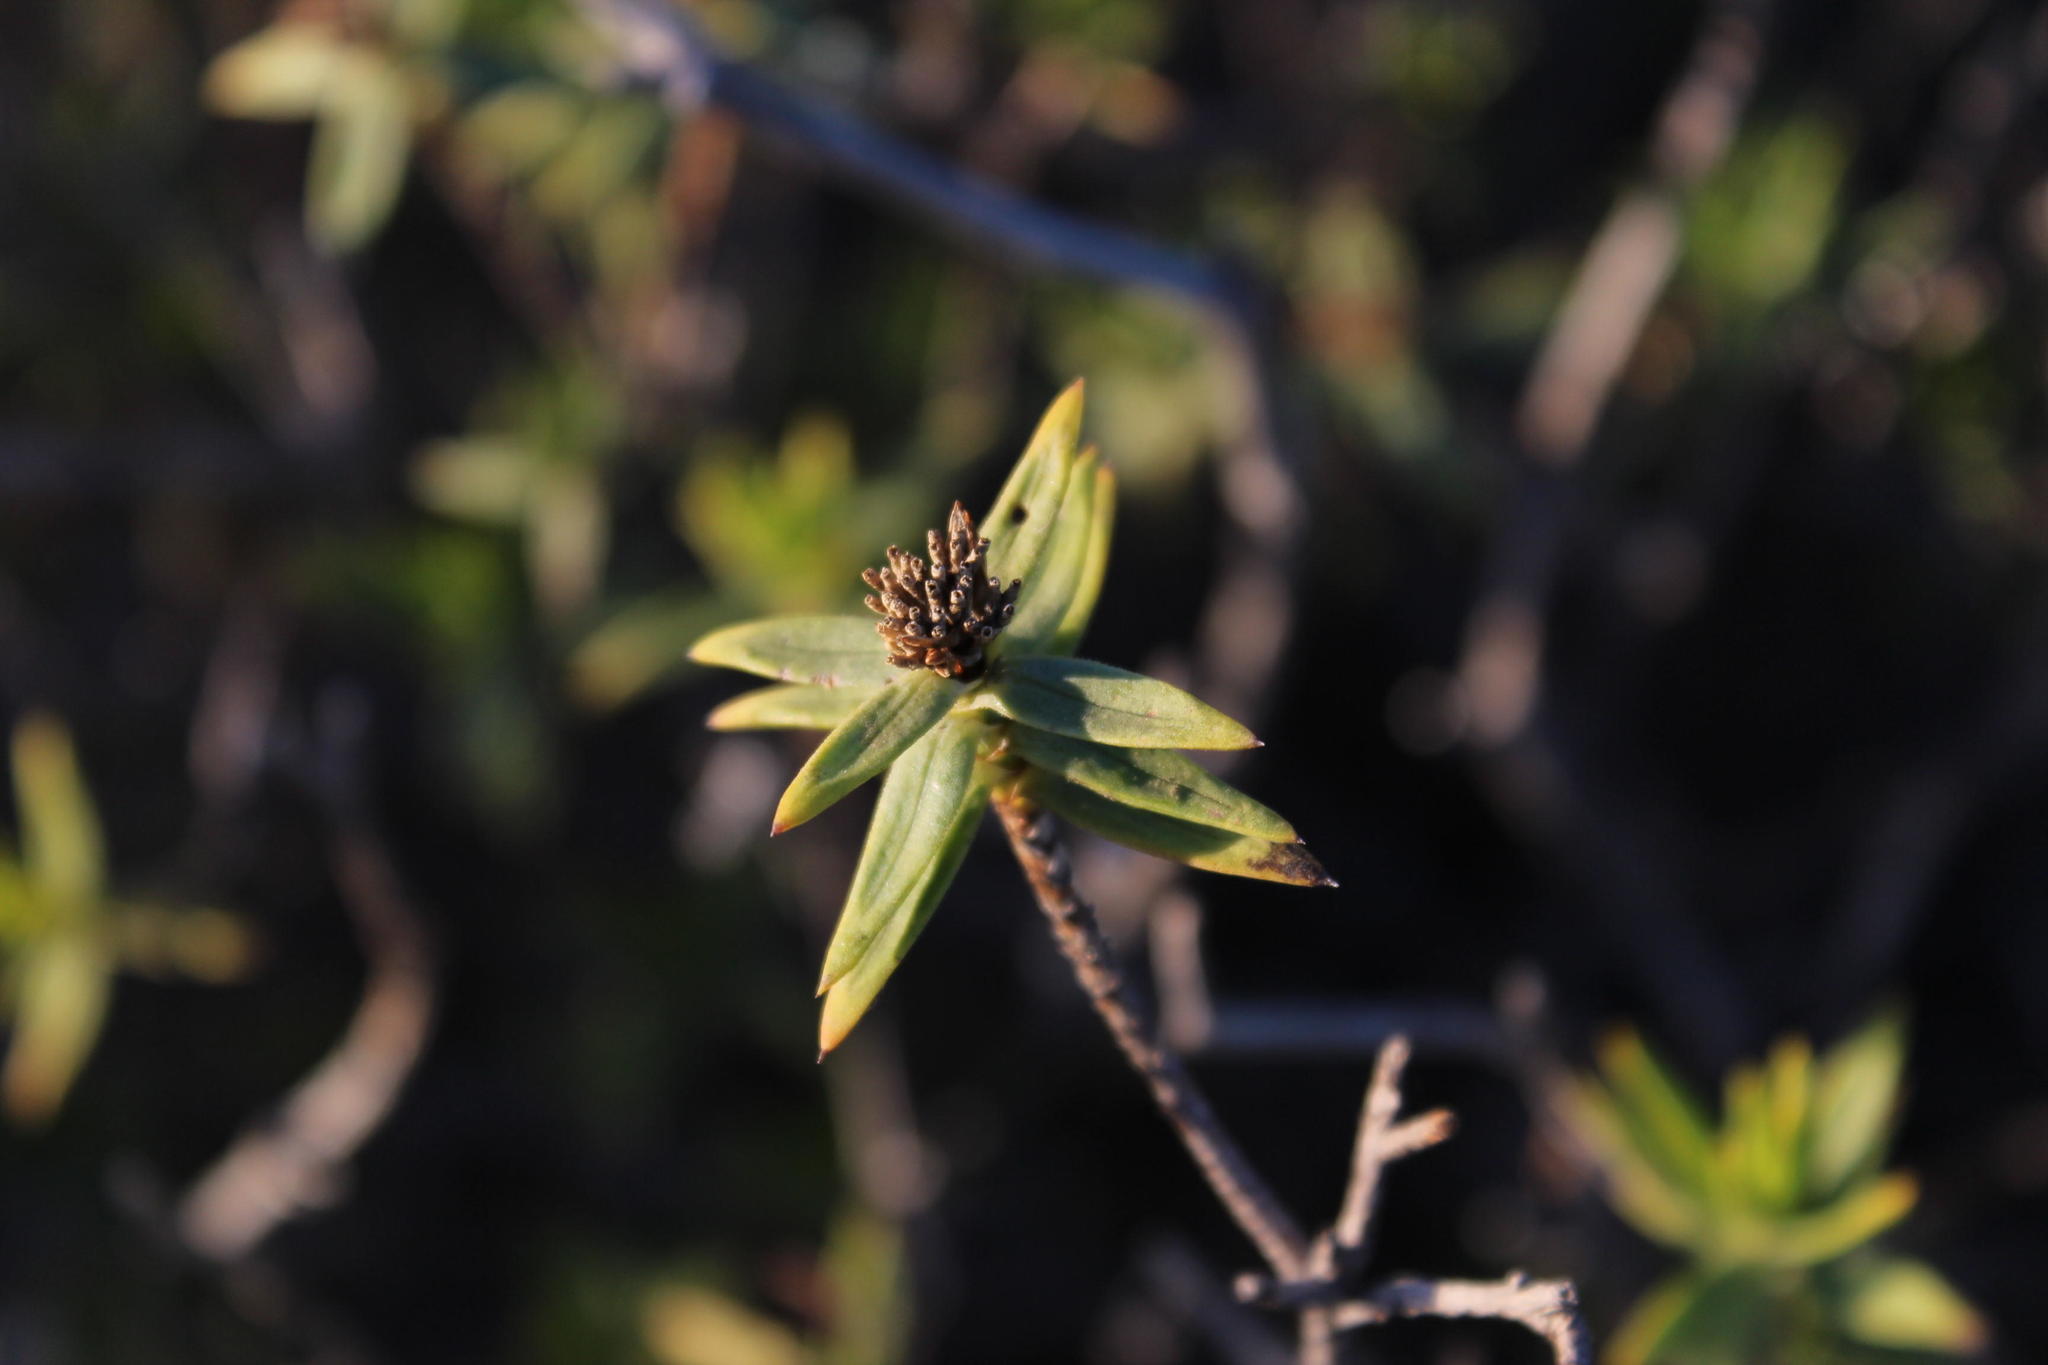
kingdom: Plantae
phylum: Tracheophyta
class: Magnoliopsida
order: Asterales
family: Asteraceae
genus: Pteronia
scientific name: Pteronia fasciculata
